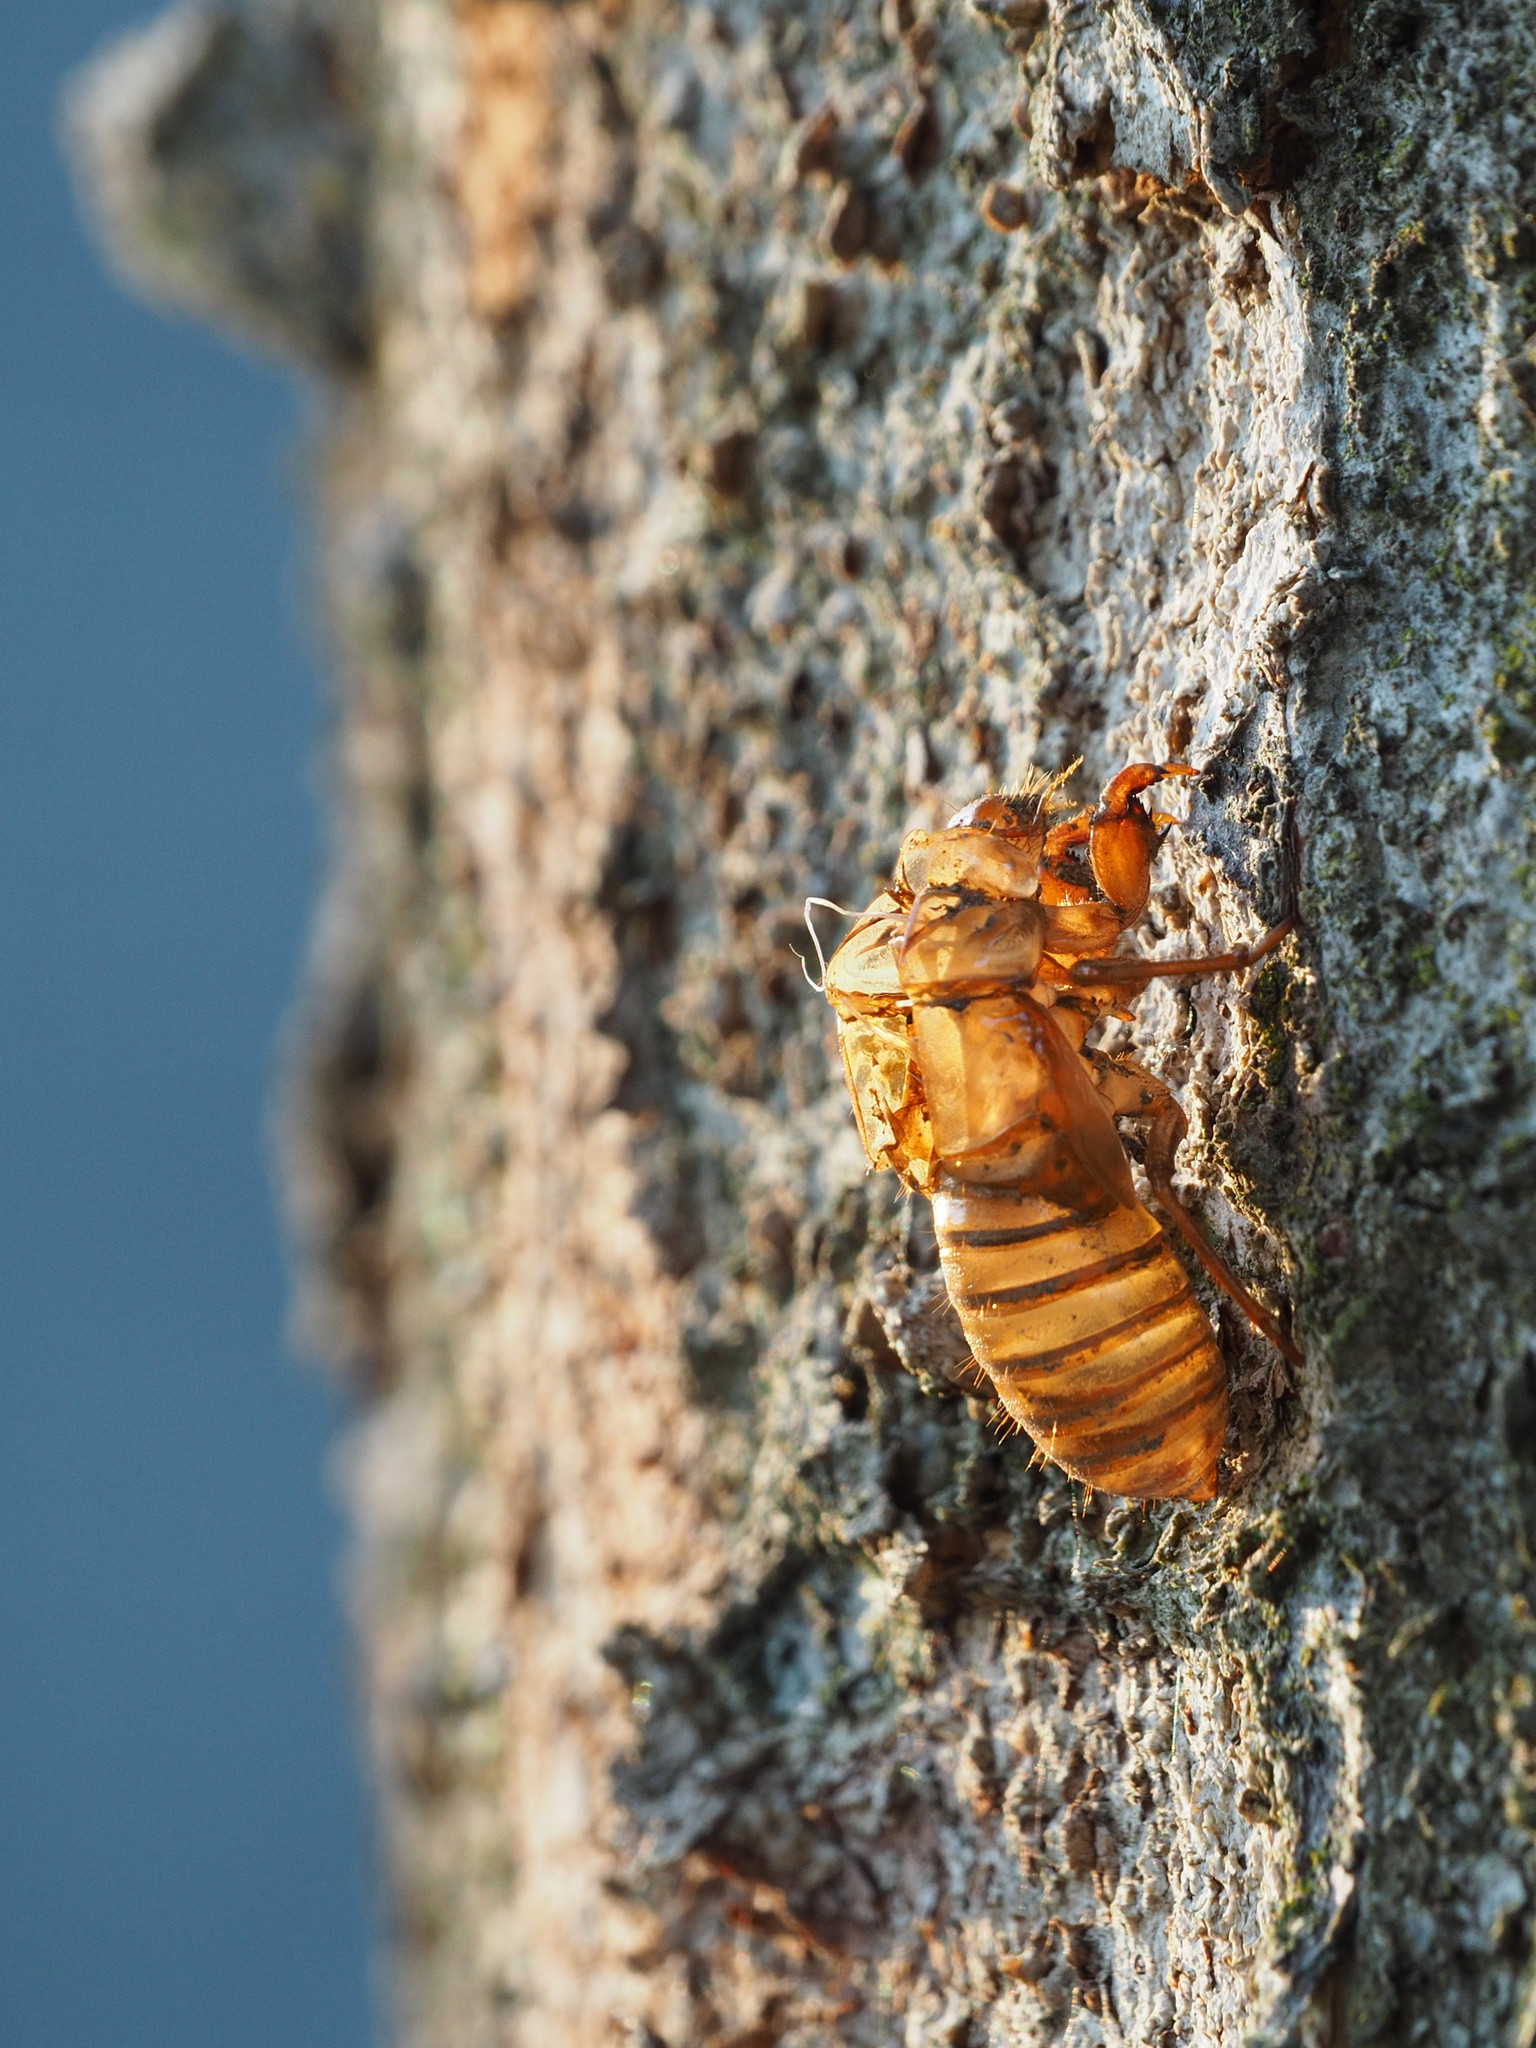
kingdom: Animalia
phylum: Arthropoda
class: Insecta
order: Hemiptera
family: Cicadidae
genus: Magicicada
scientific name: Magicicada
